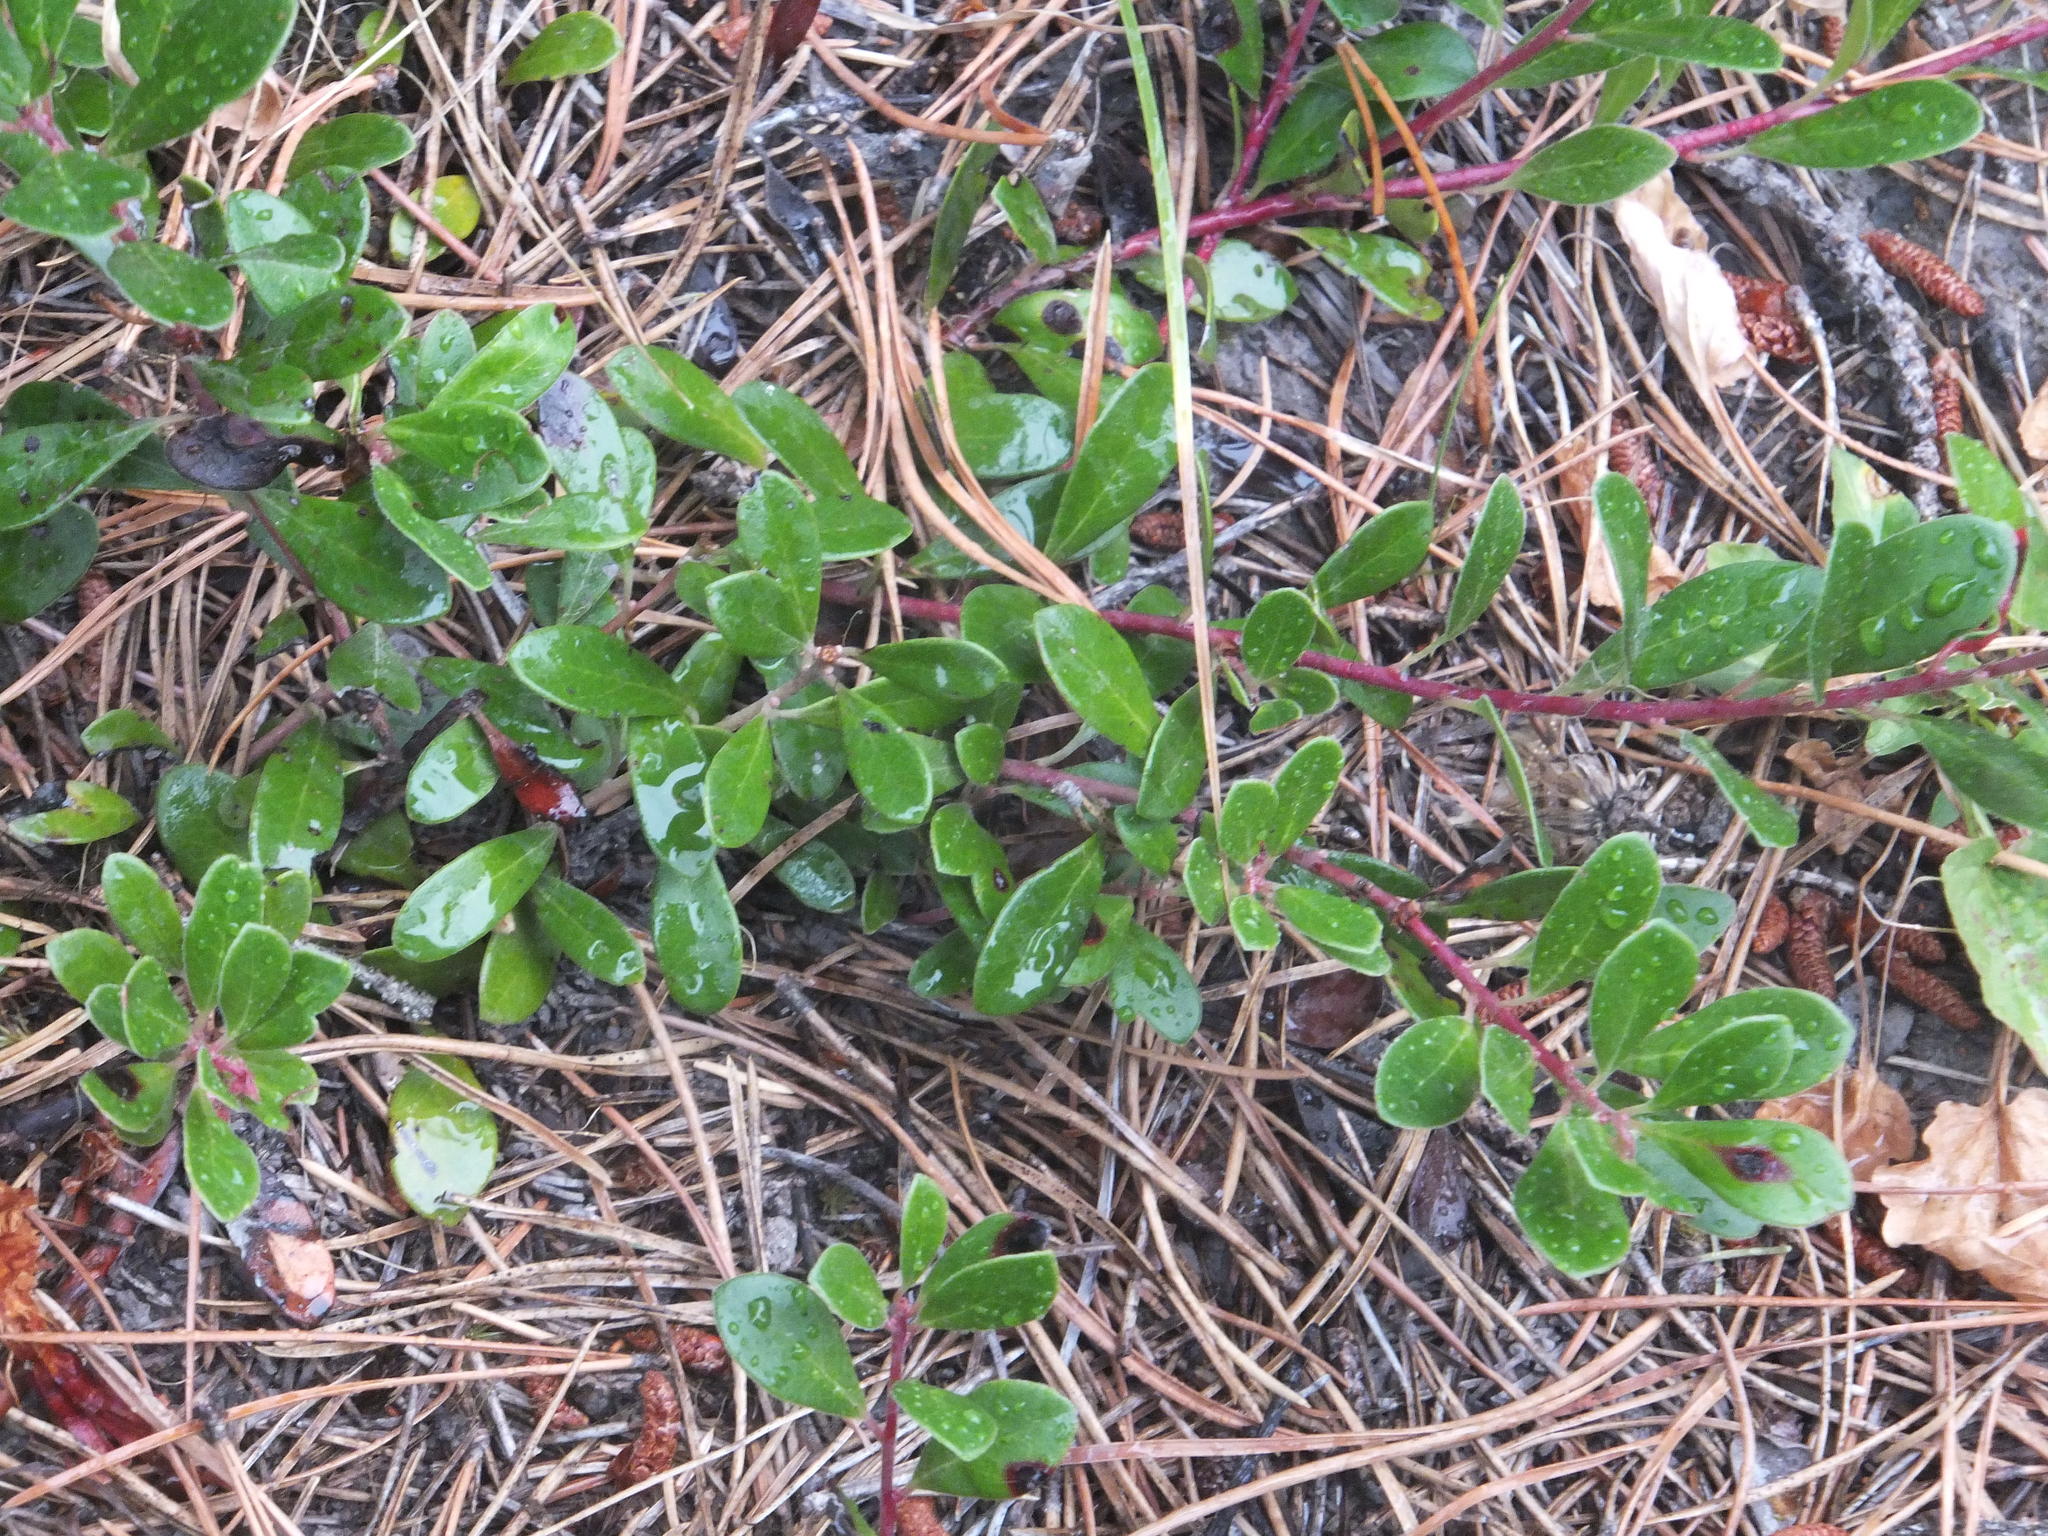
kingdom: Plantae
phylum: Tracheophyta
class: Magnoliopsida
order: Ericales
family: Ericaceae
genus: Arctostaphylos
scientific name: Arctostaphylos uva-ursi
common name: Bearberry
